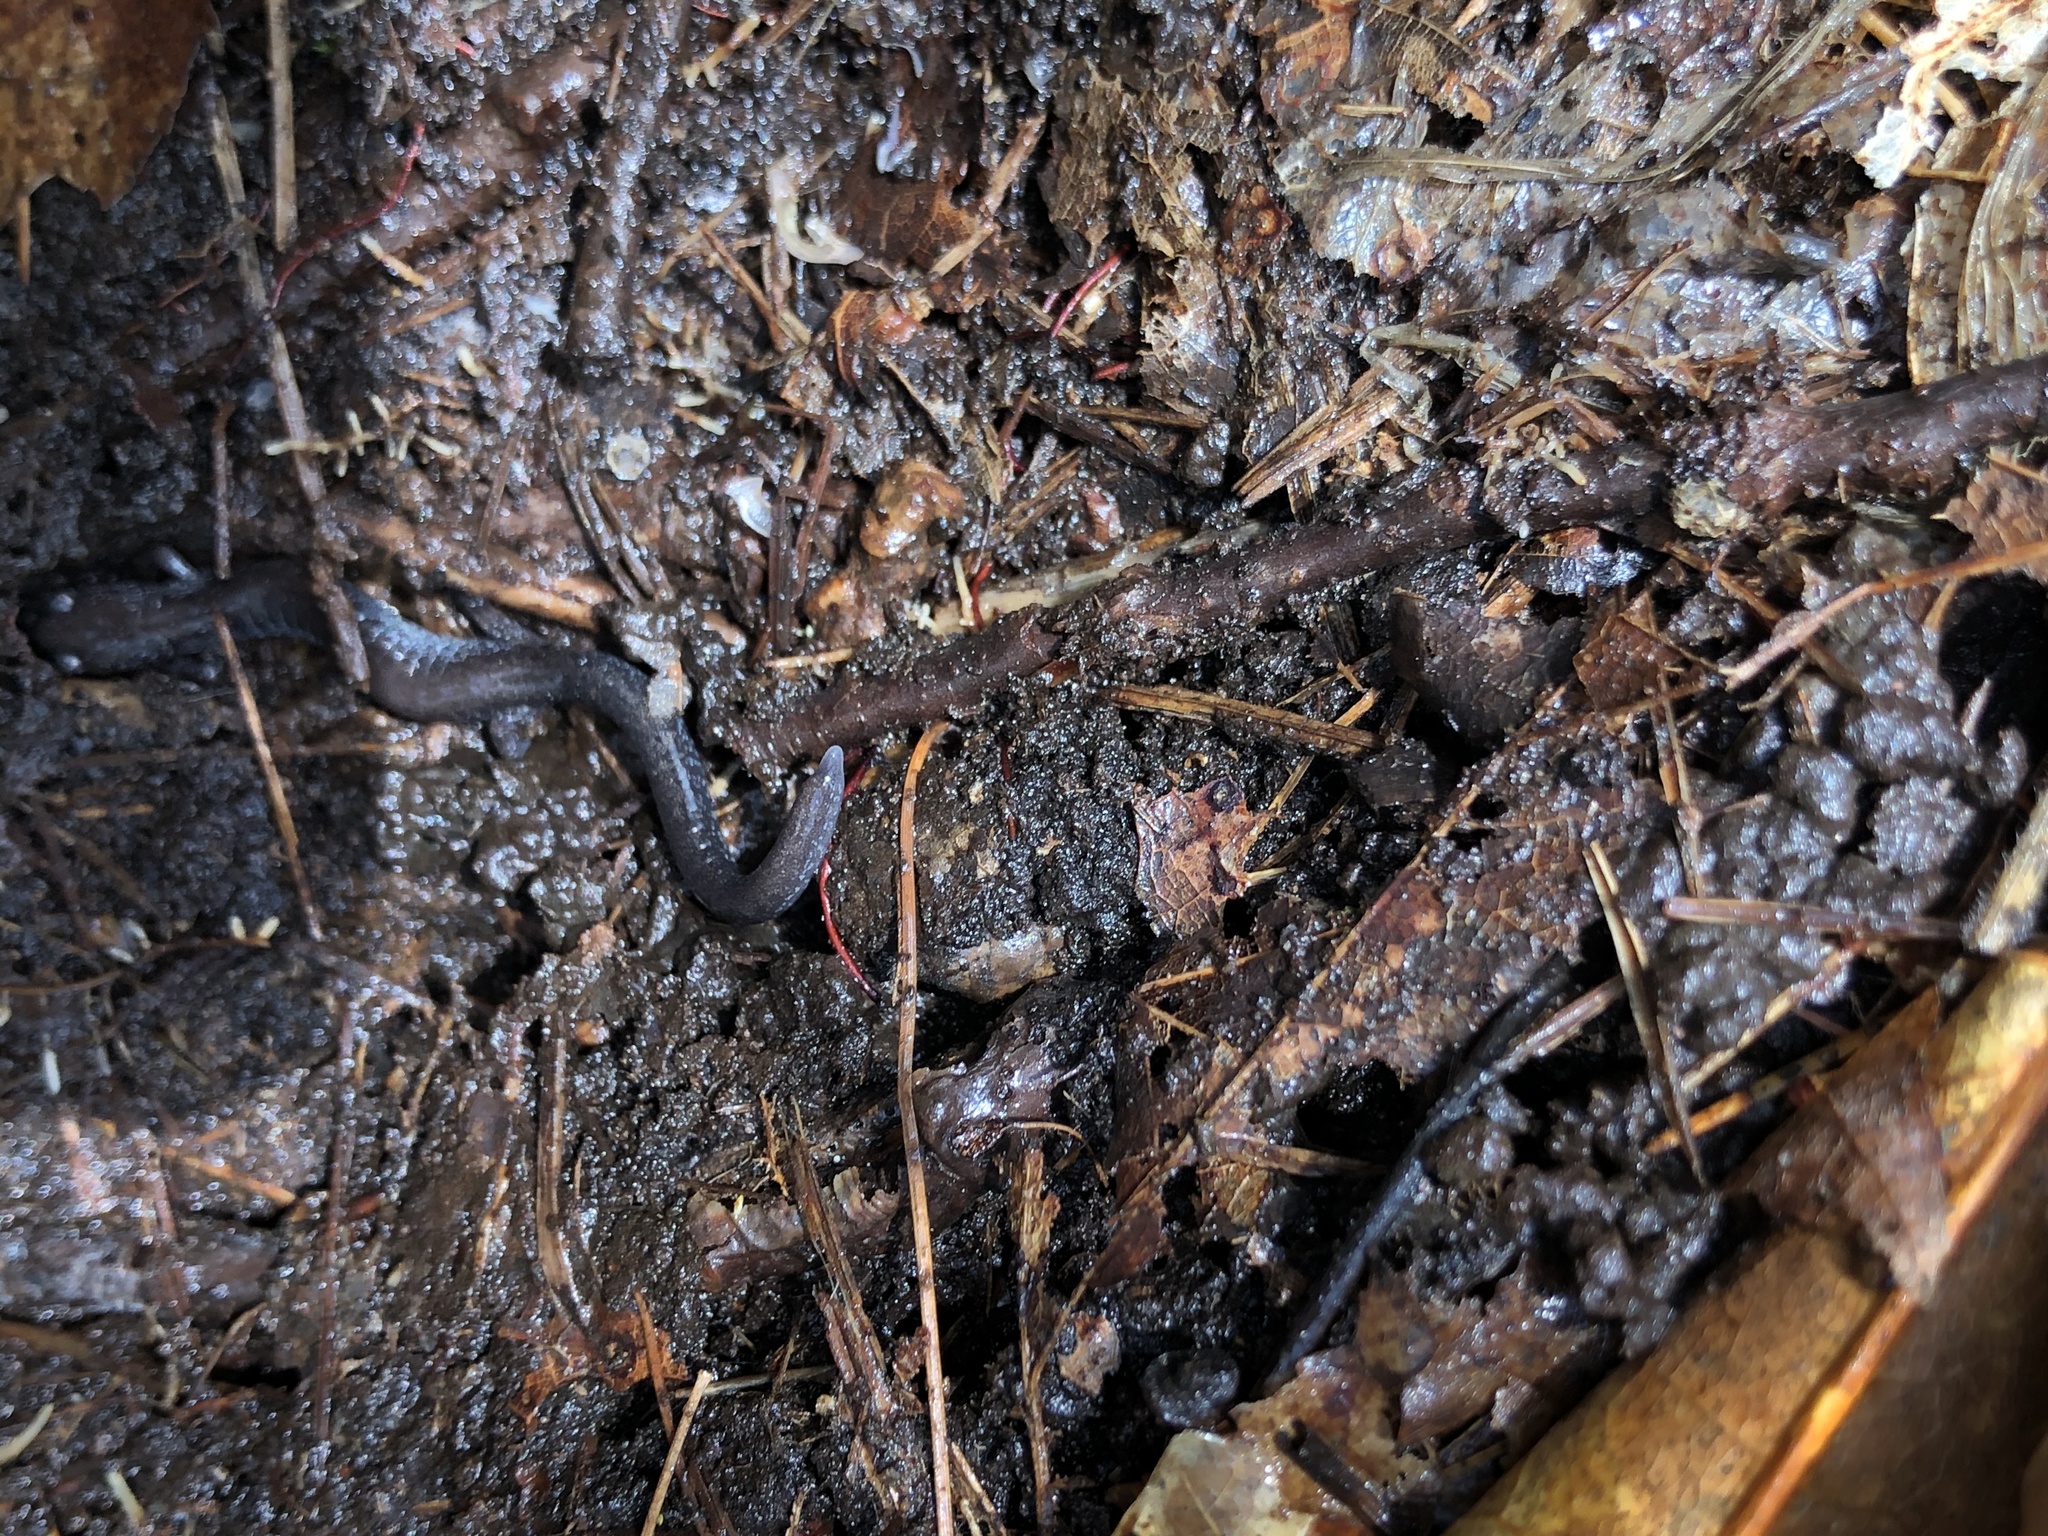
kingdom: Animalia
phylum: Chordata
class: Amphibia
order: Caudata
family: Plethodontidae
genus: Plethodon
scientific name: Plethodon cinereus
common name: Redback salamander
